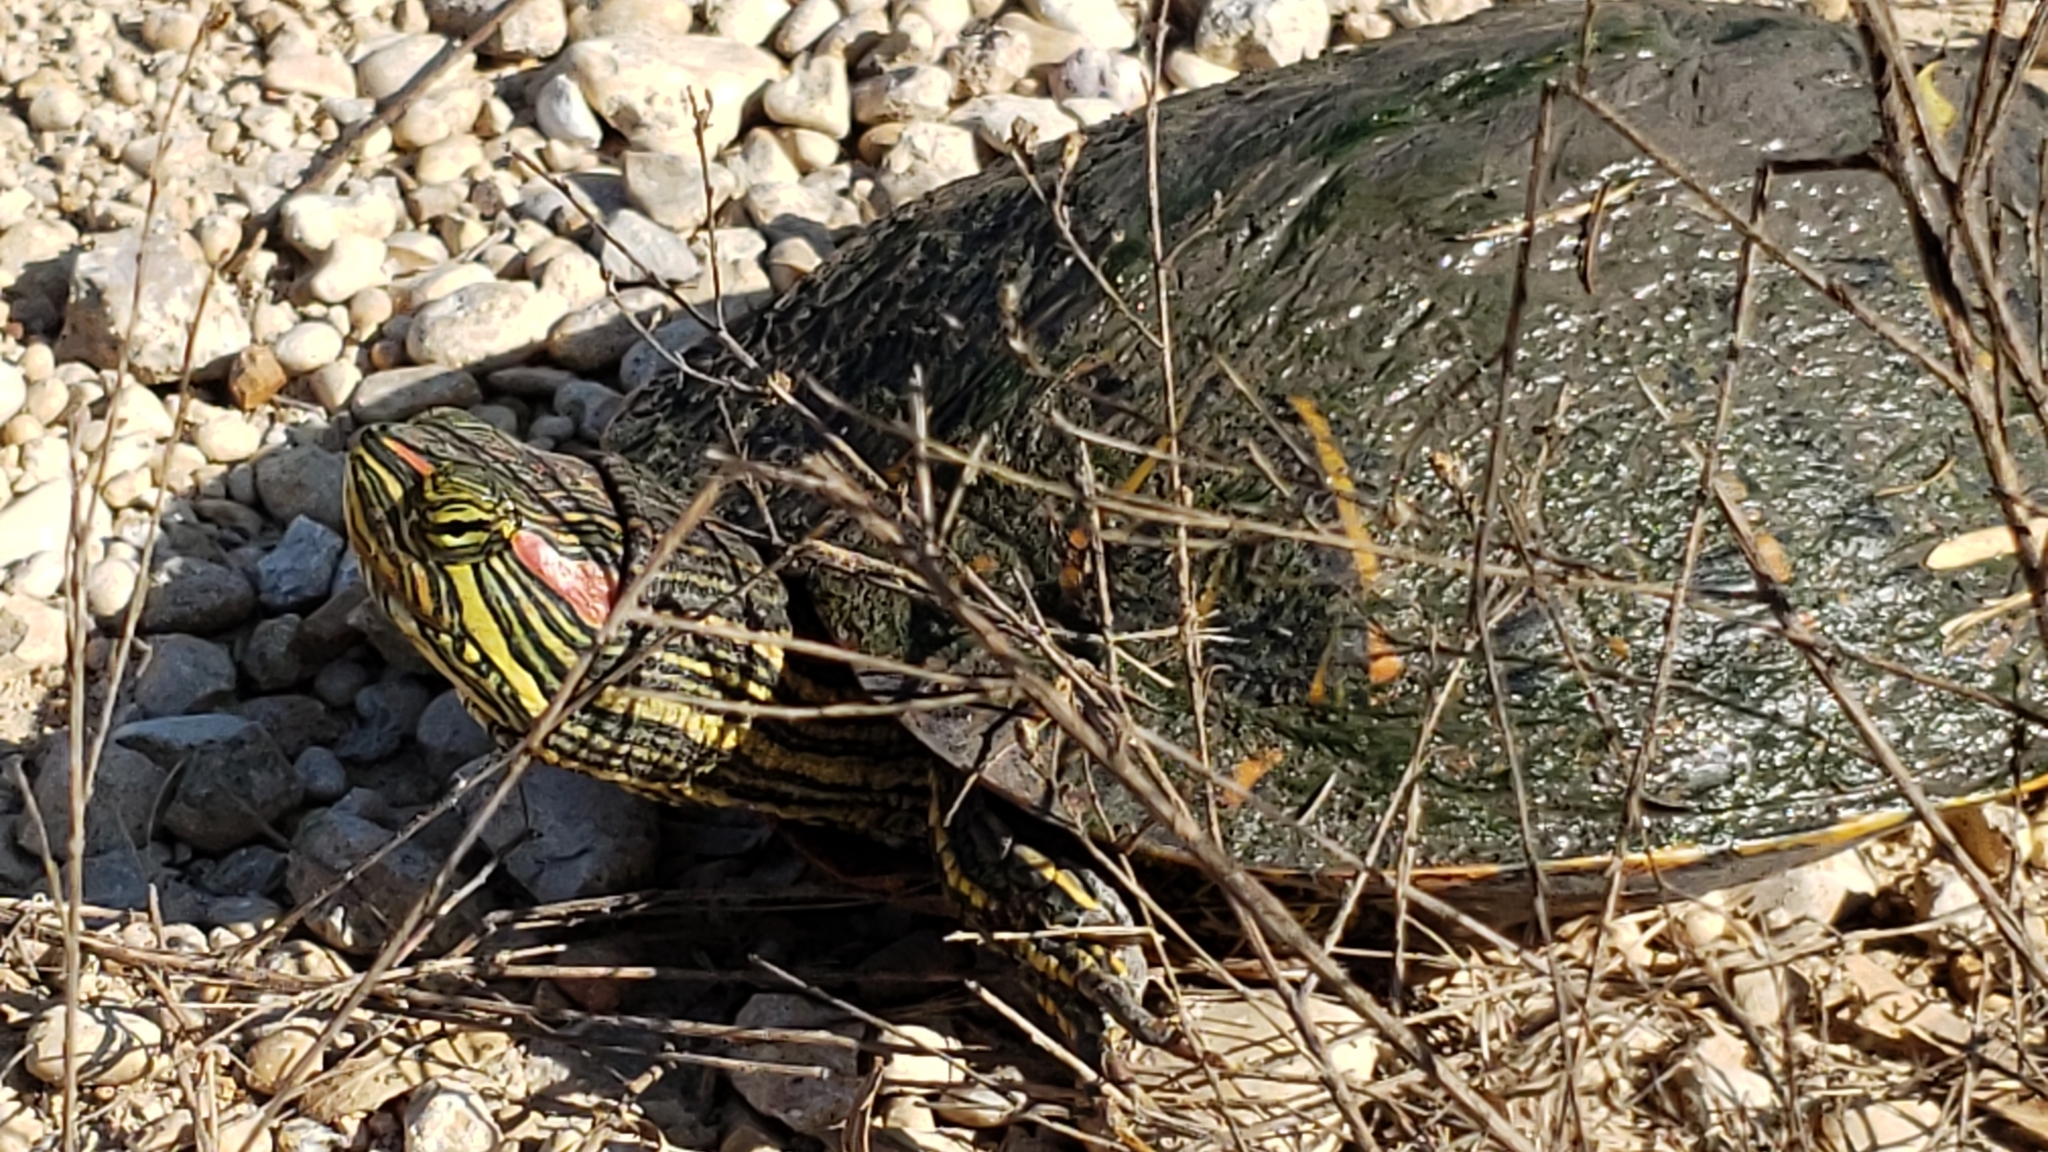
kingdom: Animalia
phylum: Chordata
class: Testudines
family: Emydidae
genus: Trachemys
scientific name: Trachemys scripta
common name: Slider
